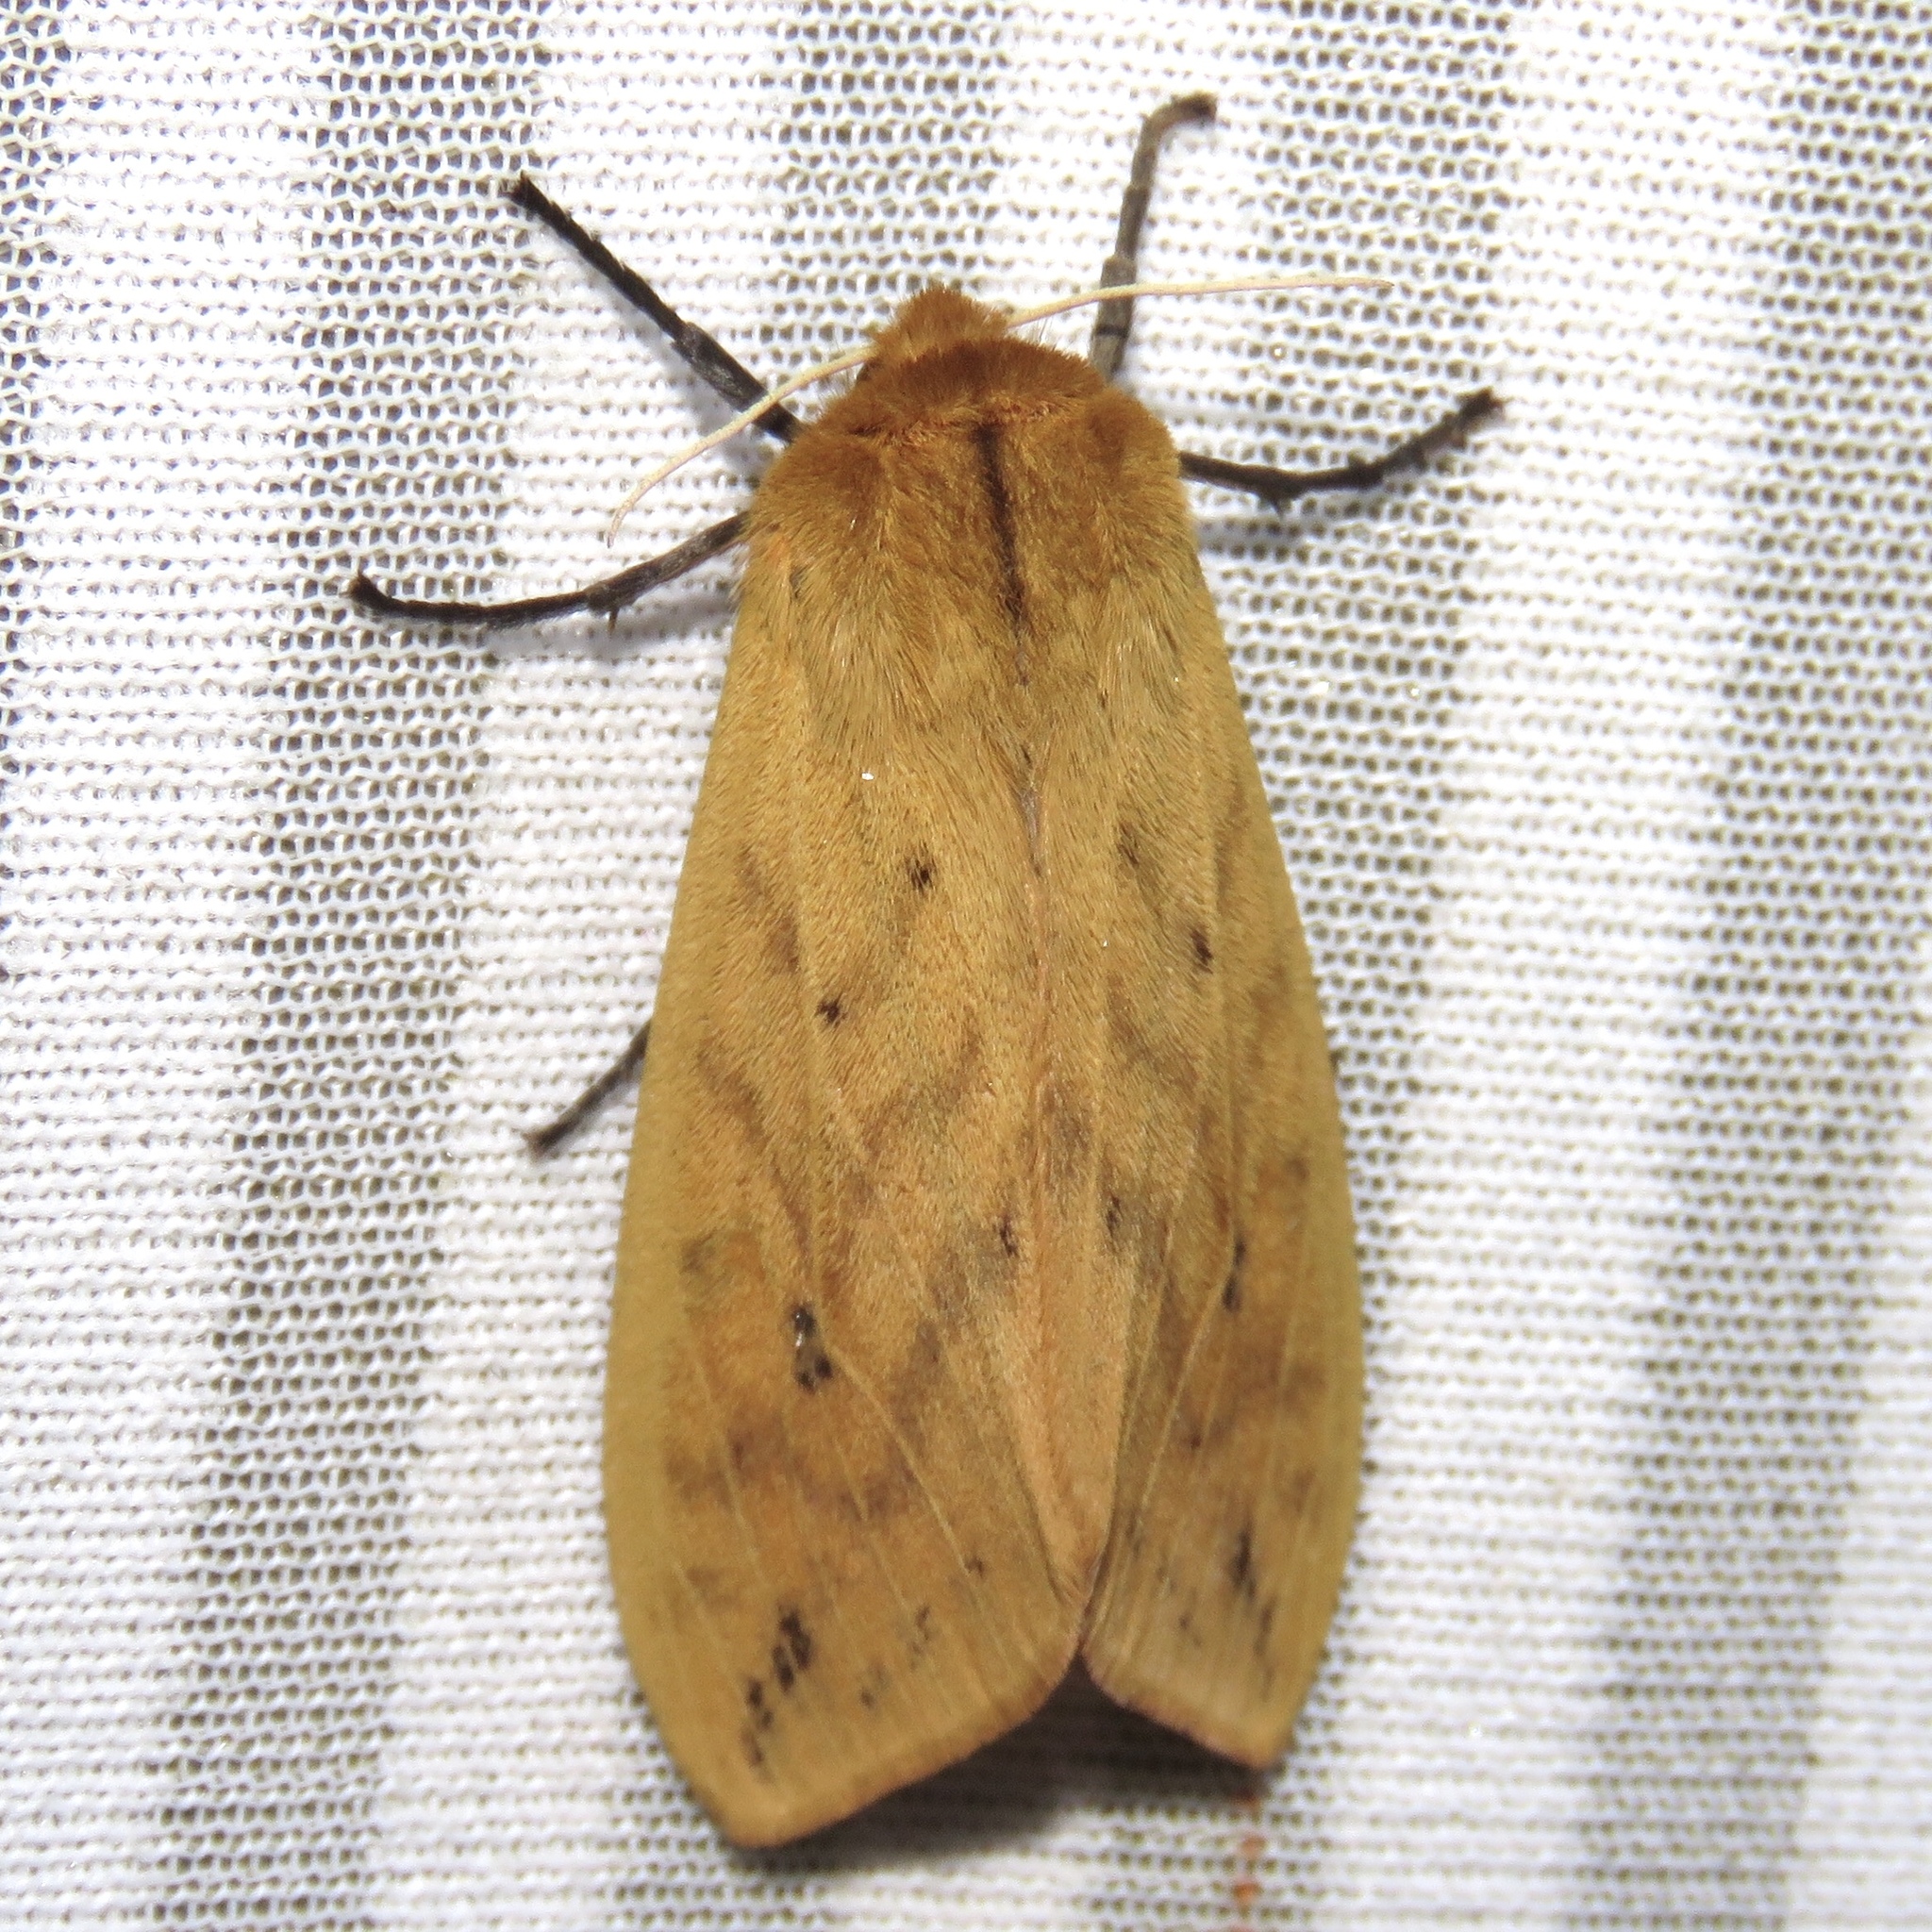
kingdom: Animalia
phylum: Arthropoda
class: Insecta
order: Lepidoptera
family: Erebidae
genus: Pyrrharctia
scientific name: Pyrrharctia isabella
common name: Isabella tiger moth
